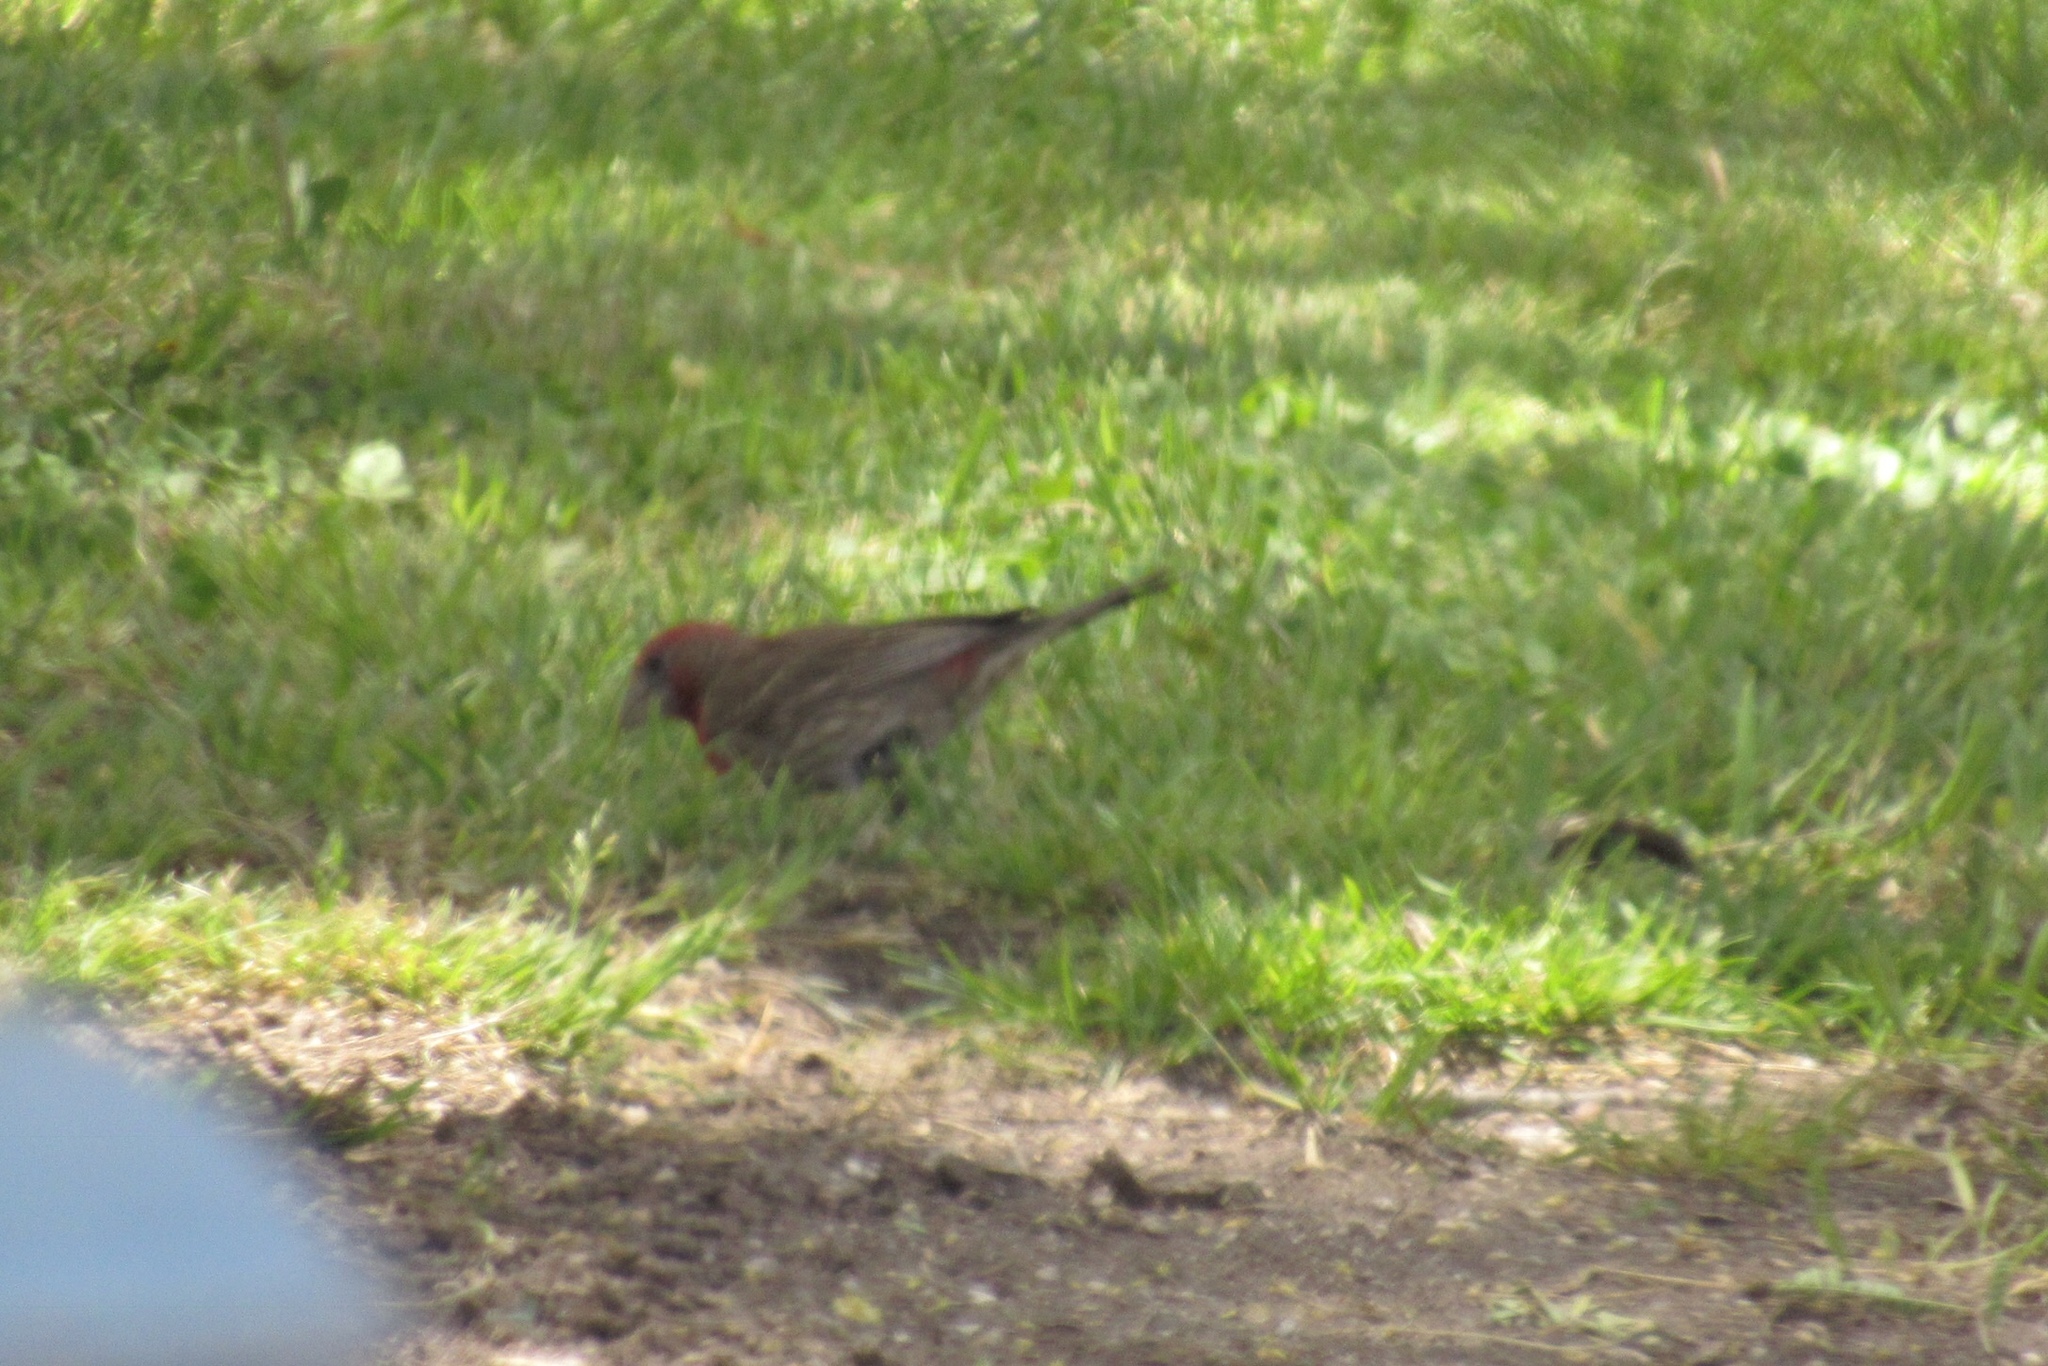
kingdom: Animalia
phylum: Chordata
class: Aves
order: Passeriformes
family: Fringillidae
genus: Haemorhous
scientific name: Haemorhous mexicanus
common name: House finch
